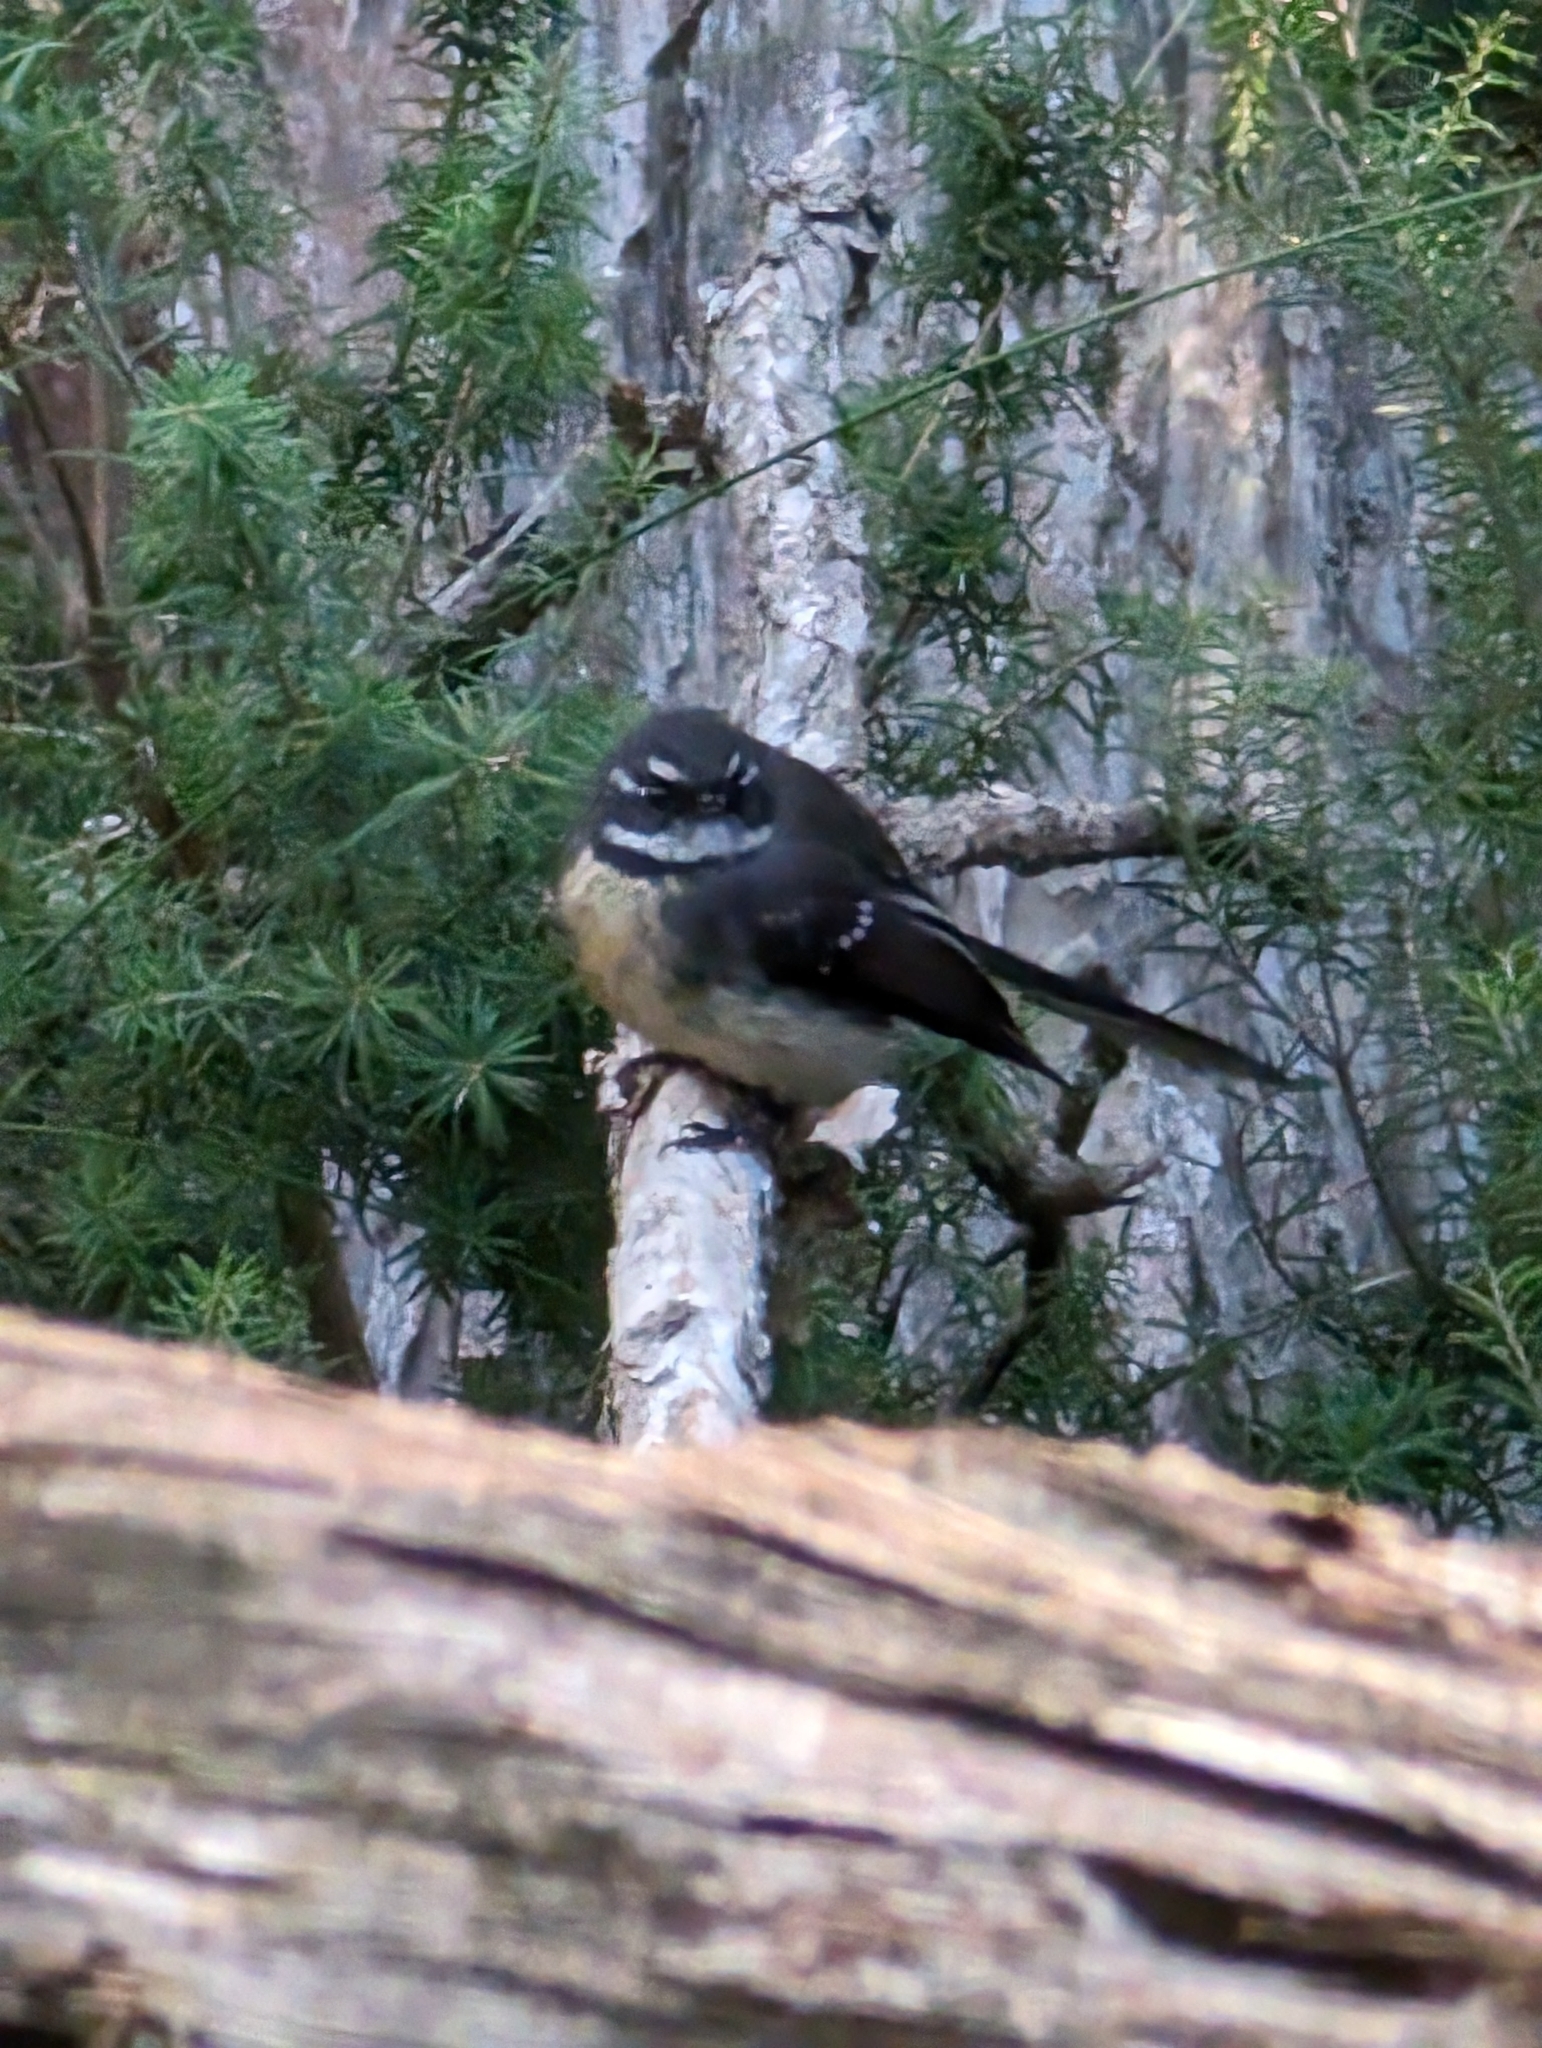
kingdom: Animalia
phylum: Chordata
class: Aves
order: Passeriformes
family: Rhipiduridae
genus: Rhipidura
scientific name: Rhipidura albiscapa
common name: Grey fantail
